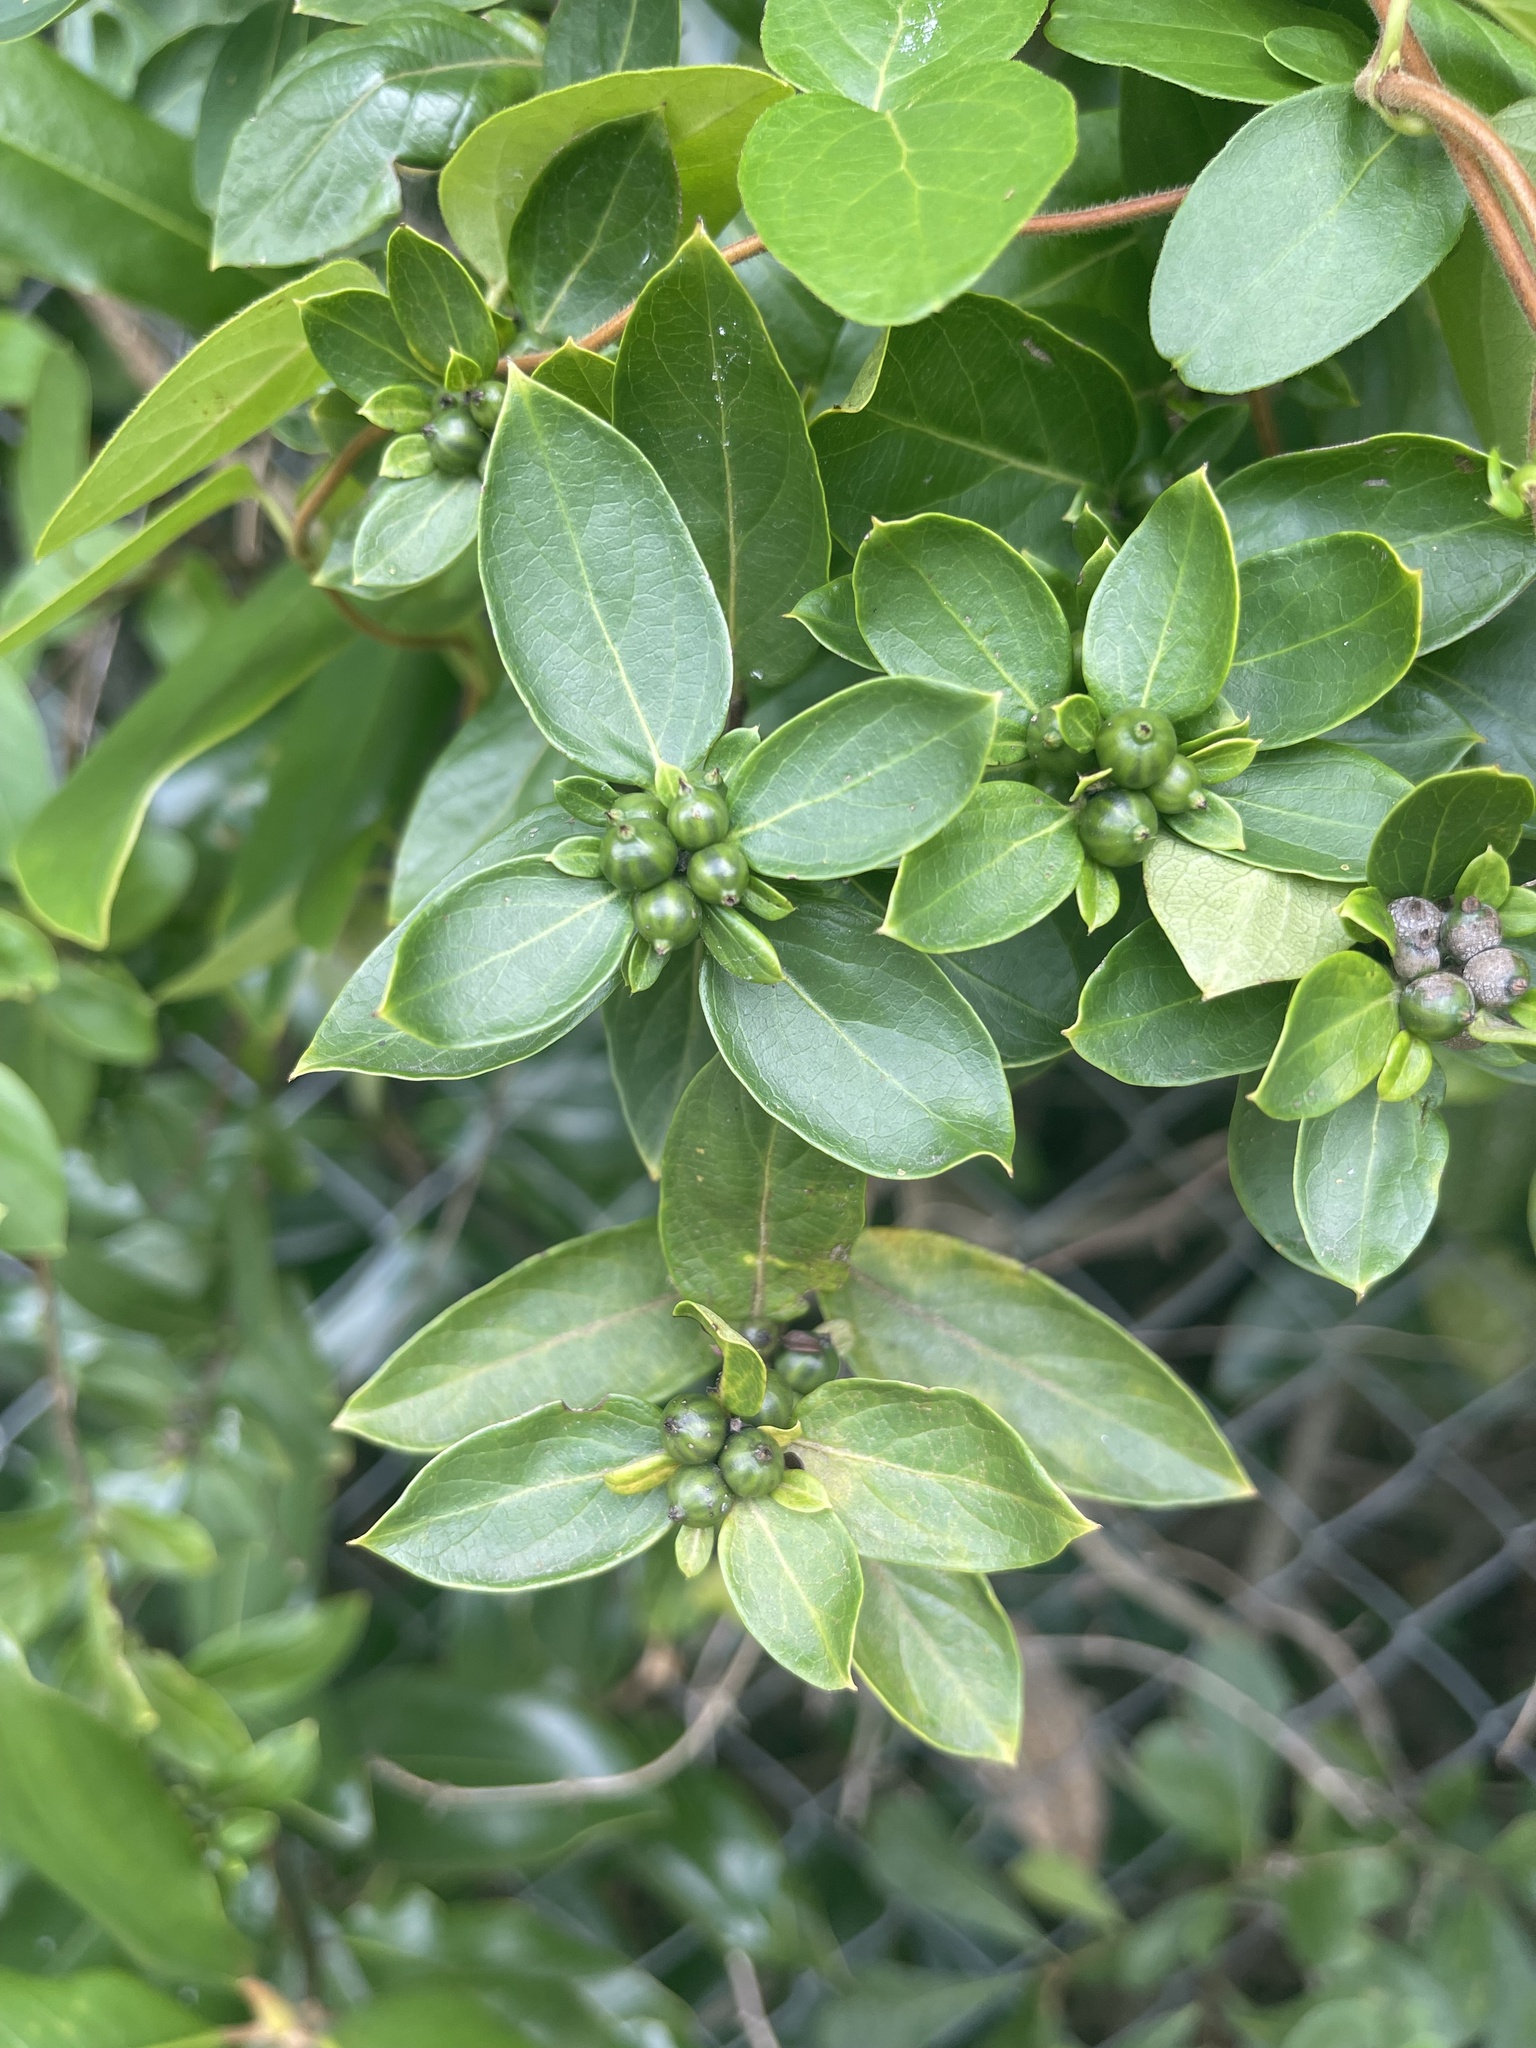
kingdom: Plantae
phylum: Tracheophyta
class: Magnoliopsida
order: Dipsacales
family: Caprifoliaceae
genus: Lonicera
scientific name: Lonicera japonica
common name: Japanese honeysuckle
